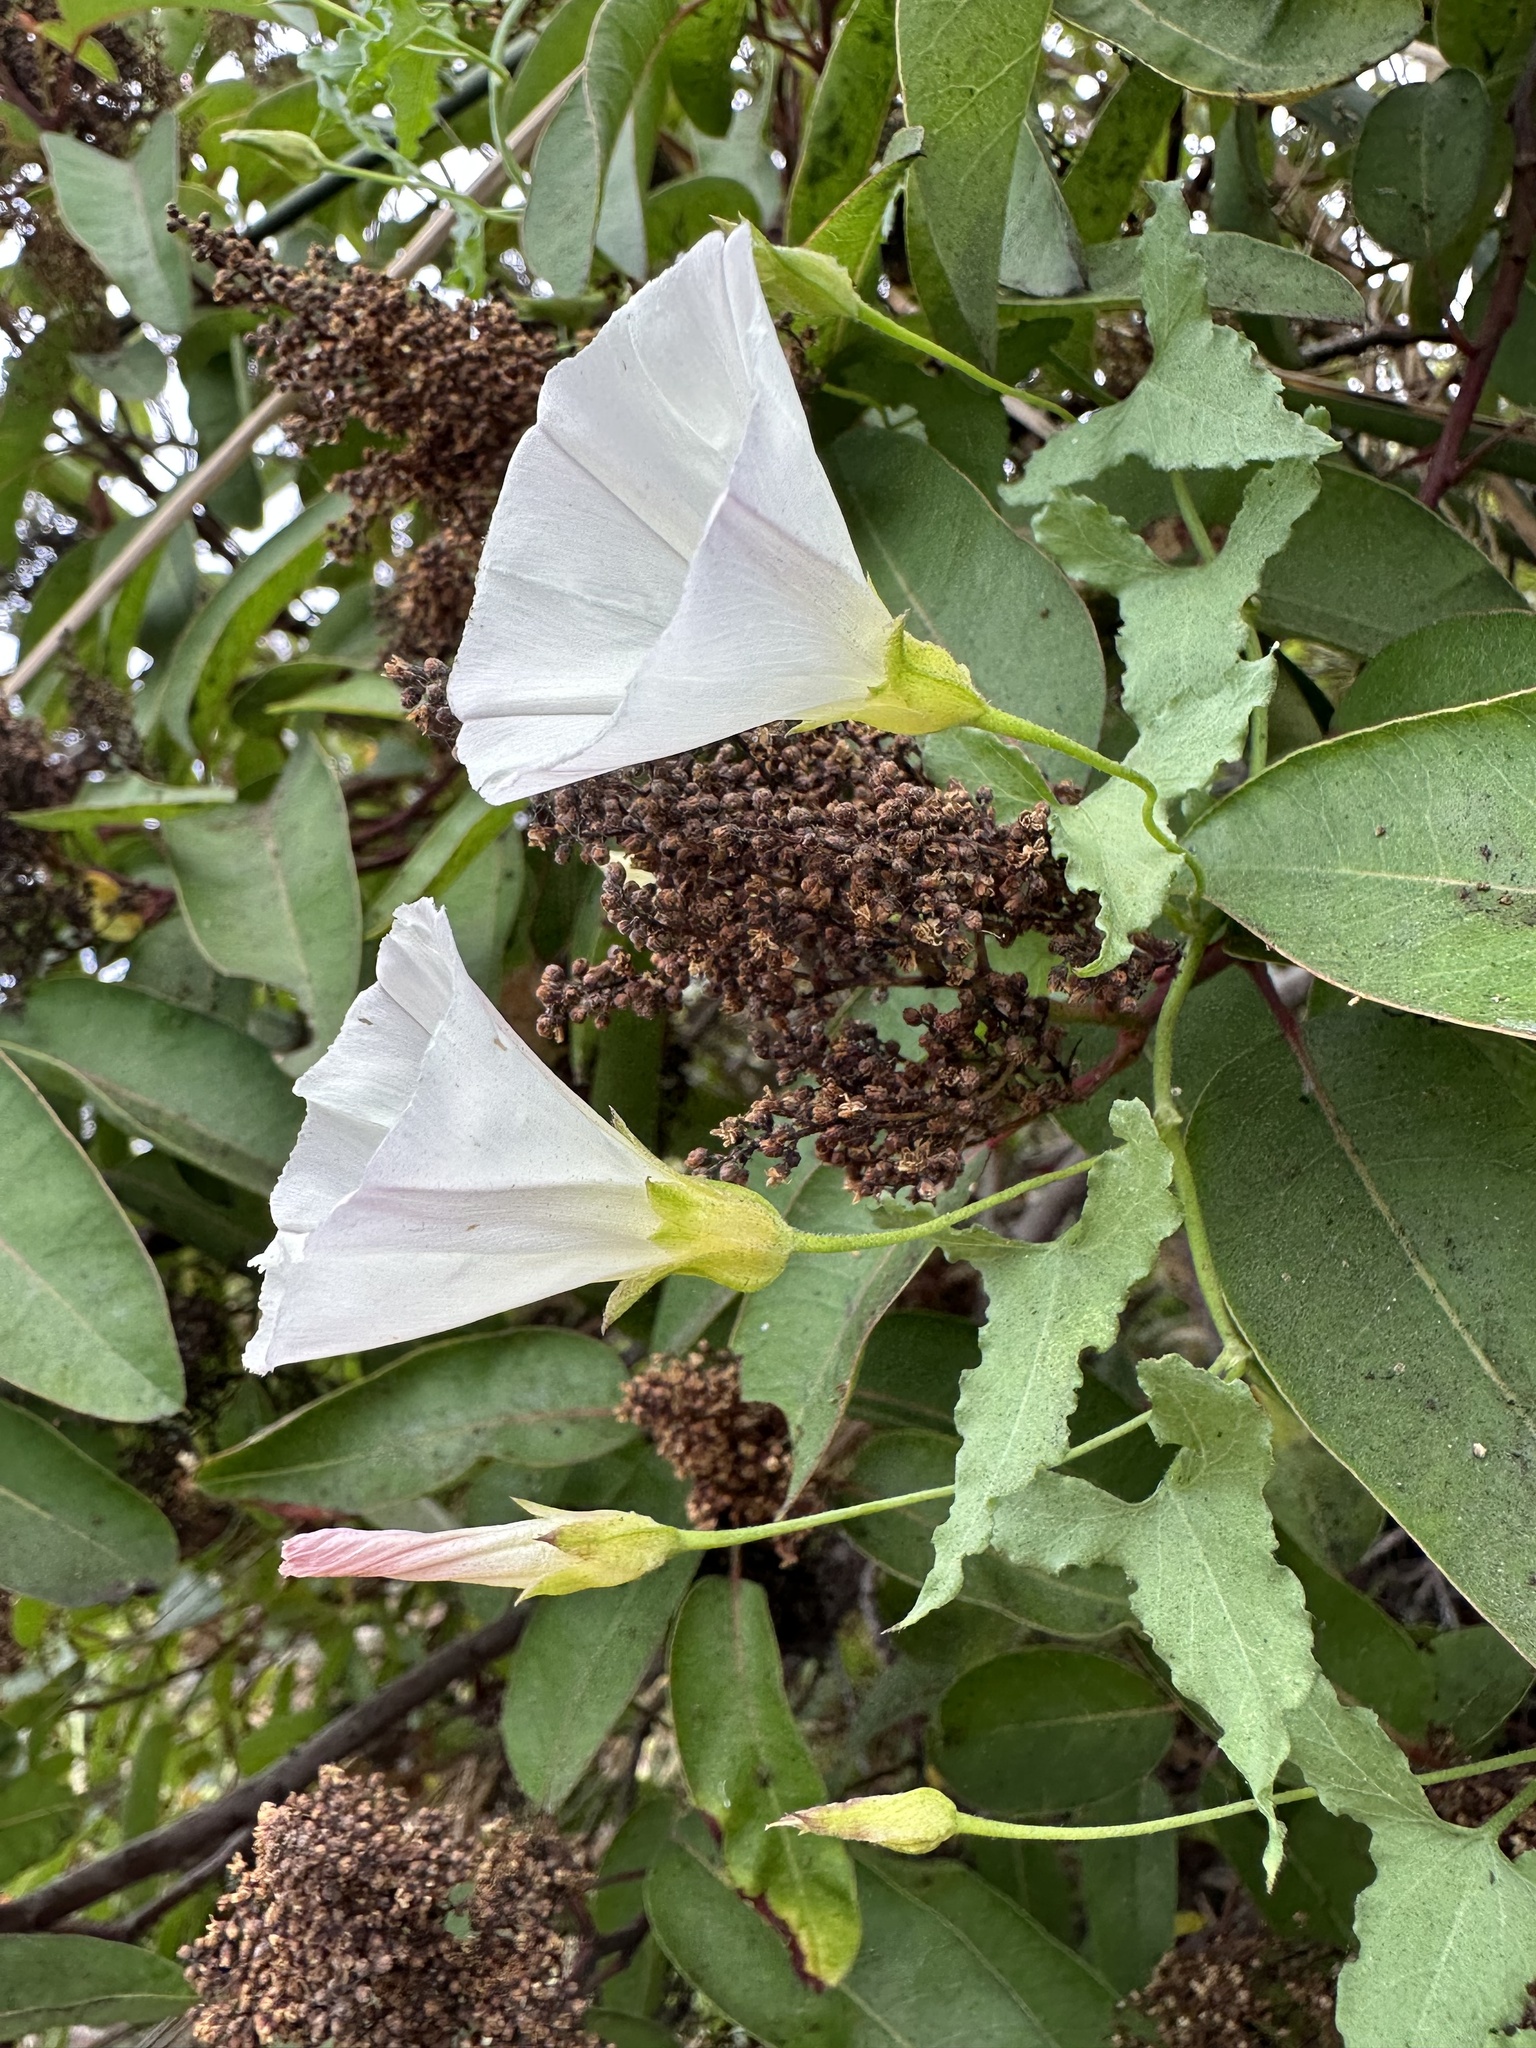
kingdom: Plantae
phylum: Tracheophyta
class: Magnoliopsida
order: Solanales
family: Convolvulaceae
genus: Calystegia
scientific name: Calystegia macrostegia
